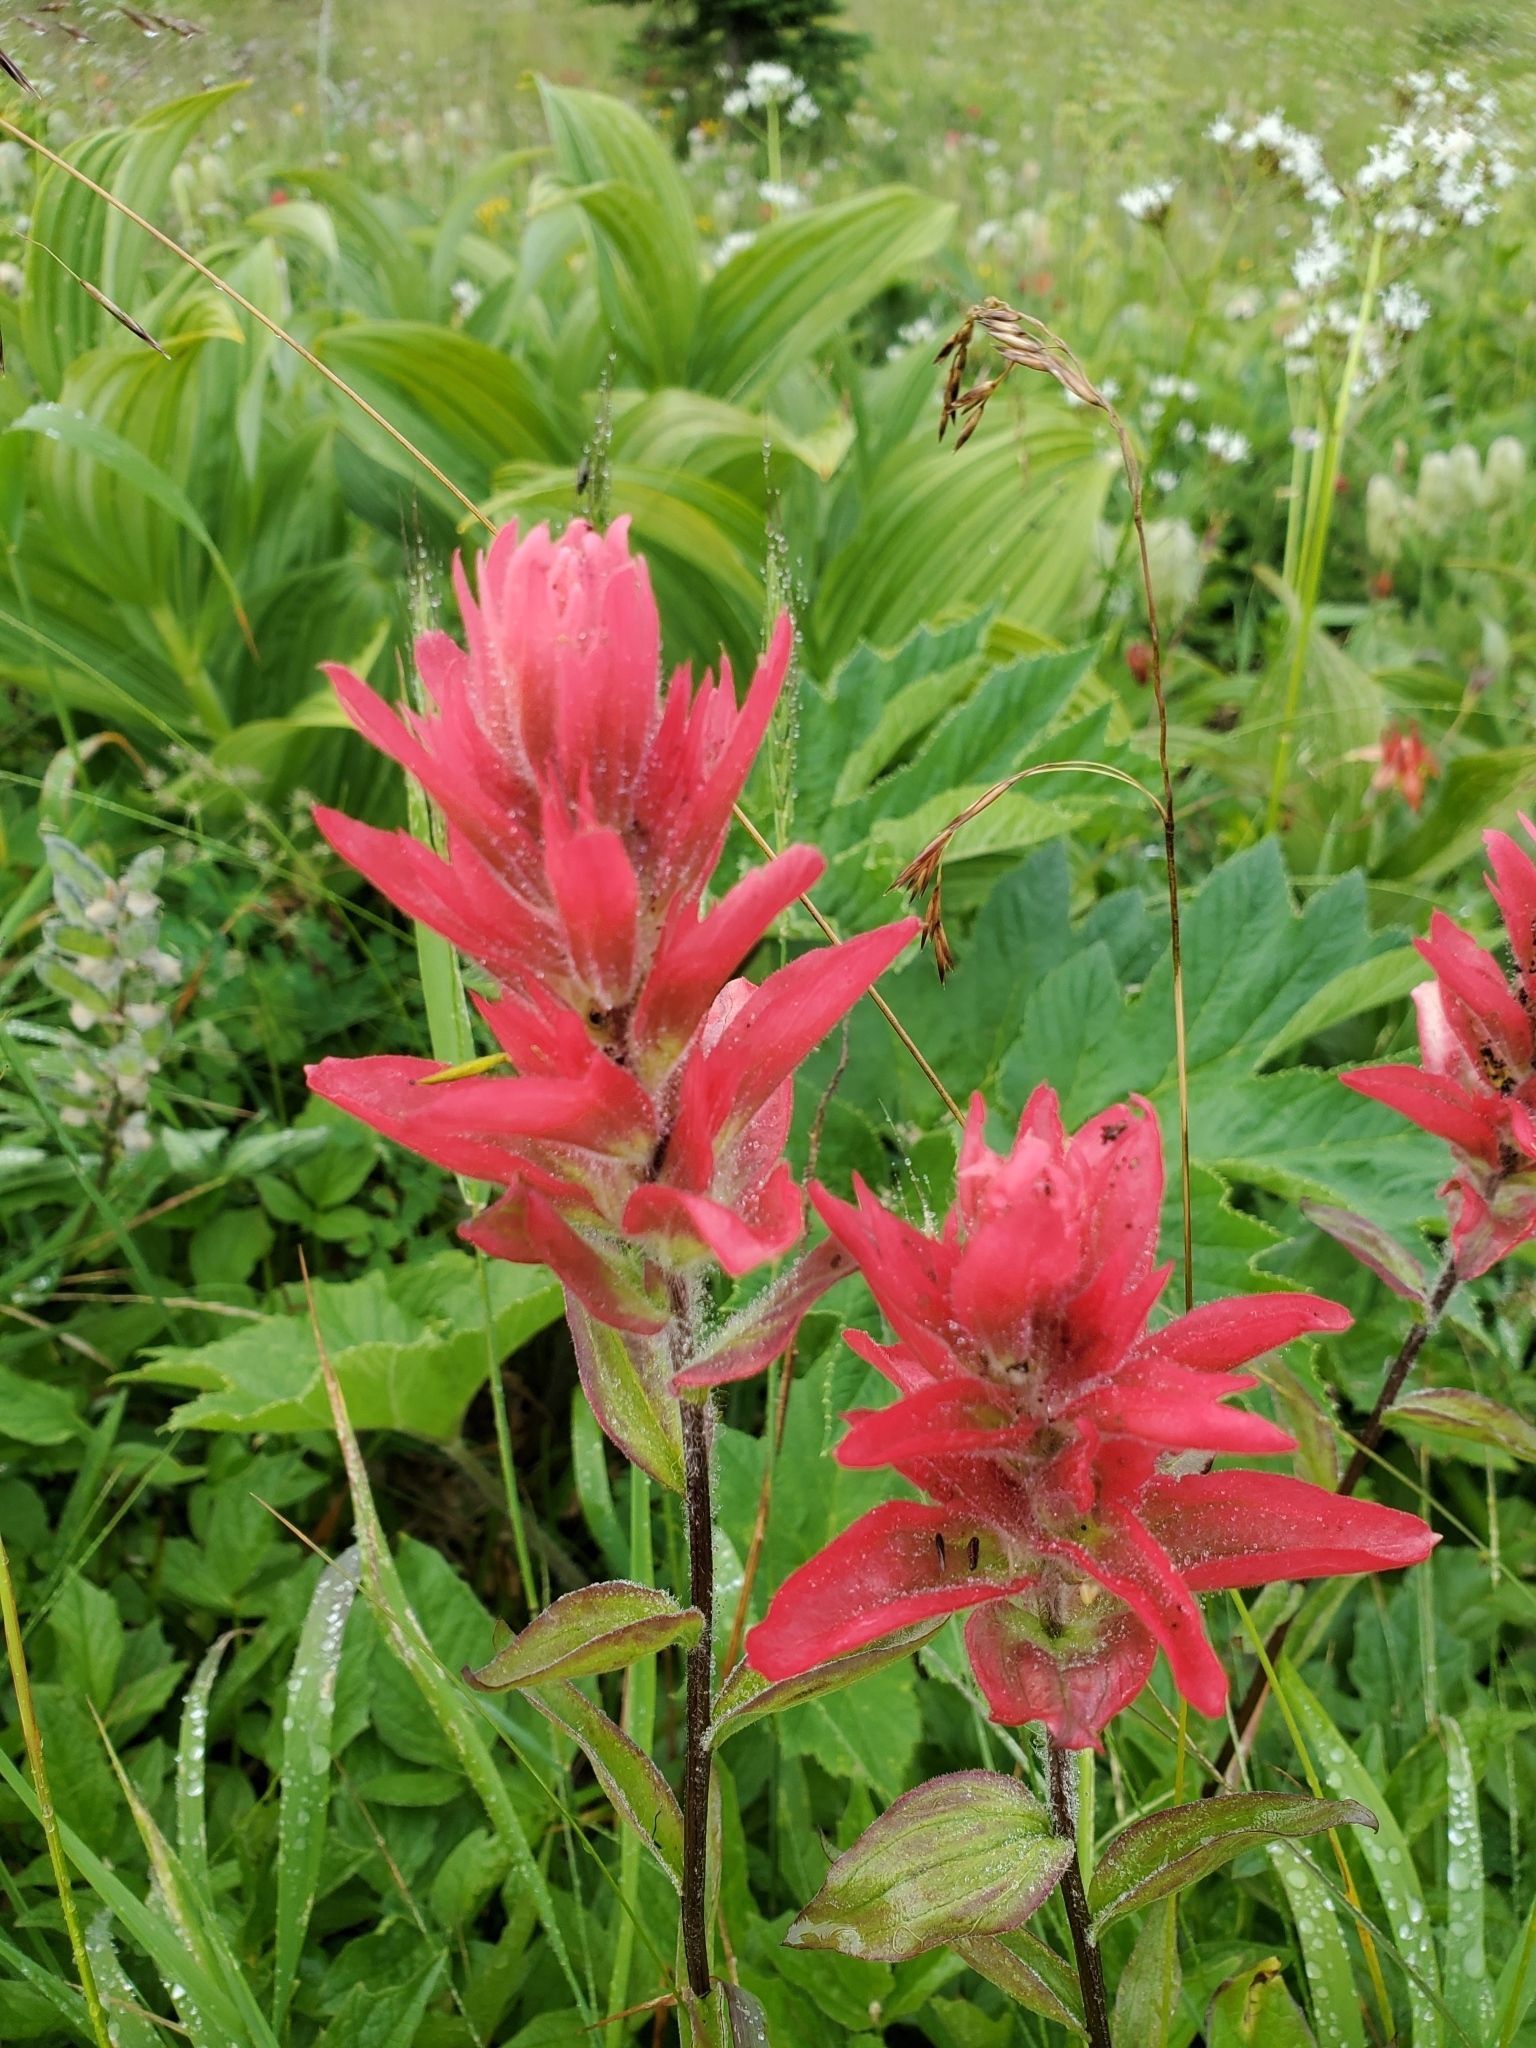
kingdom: Plantae
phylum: Tracheophyta
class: Magnoliopsida
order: Lamiales
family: Orobanchaceae
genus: Castilleja
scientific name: Castilleja miniata
